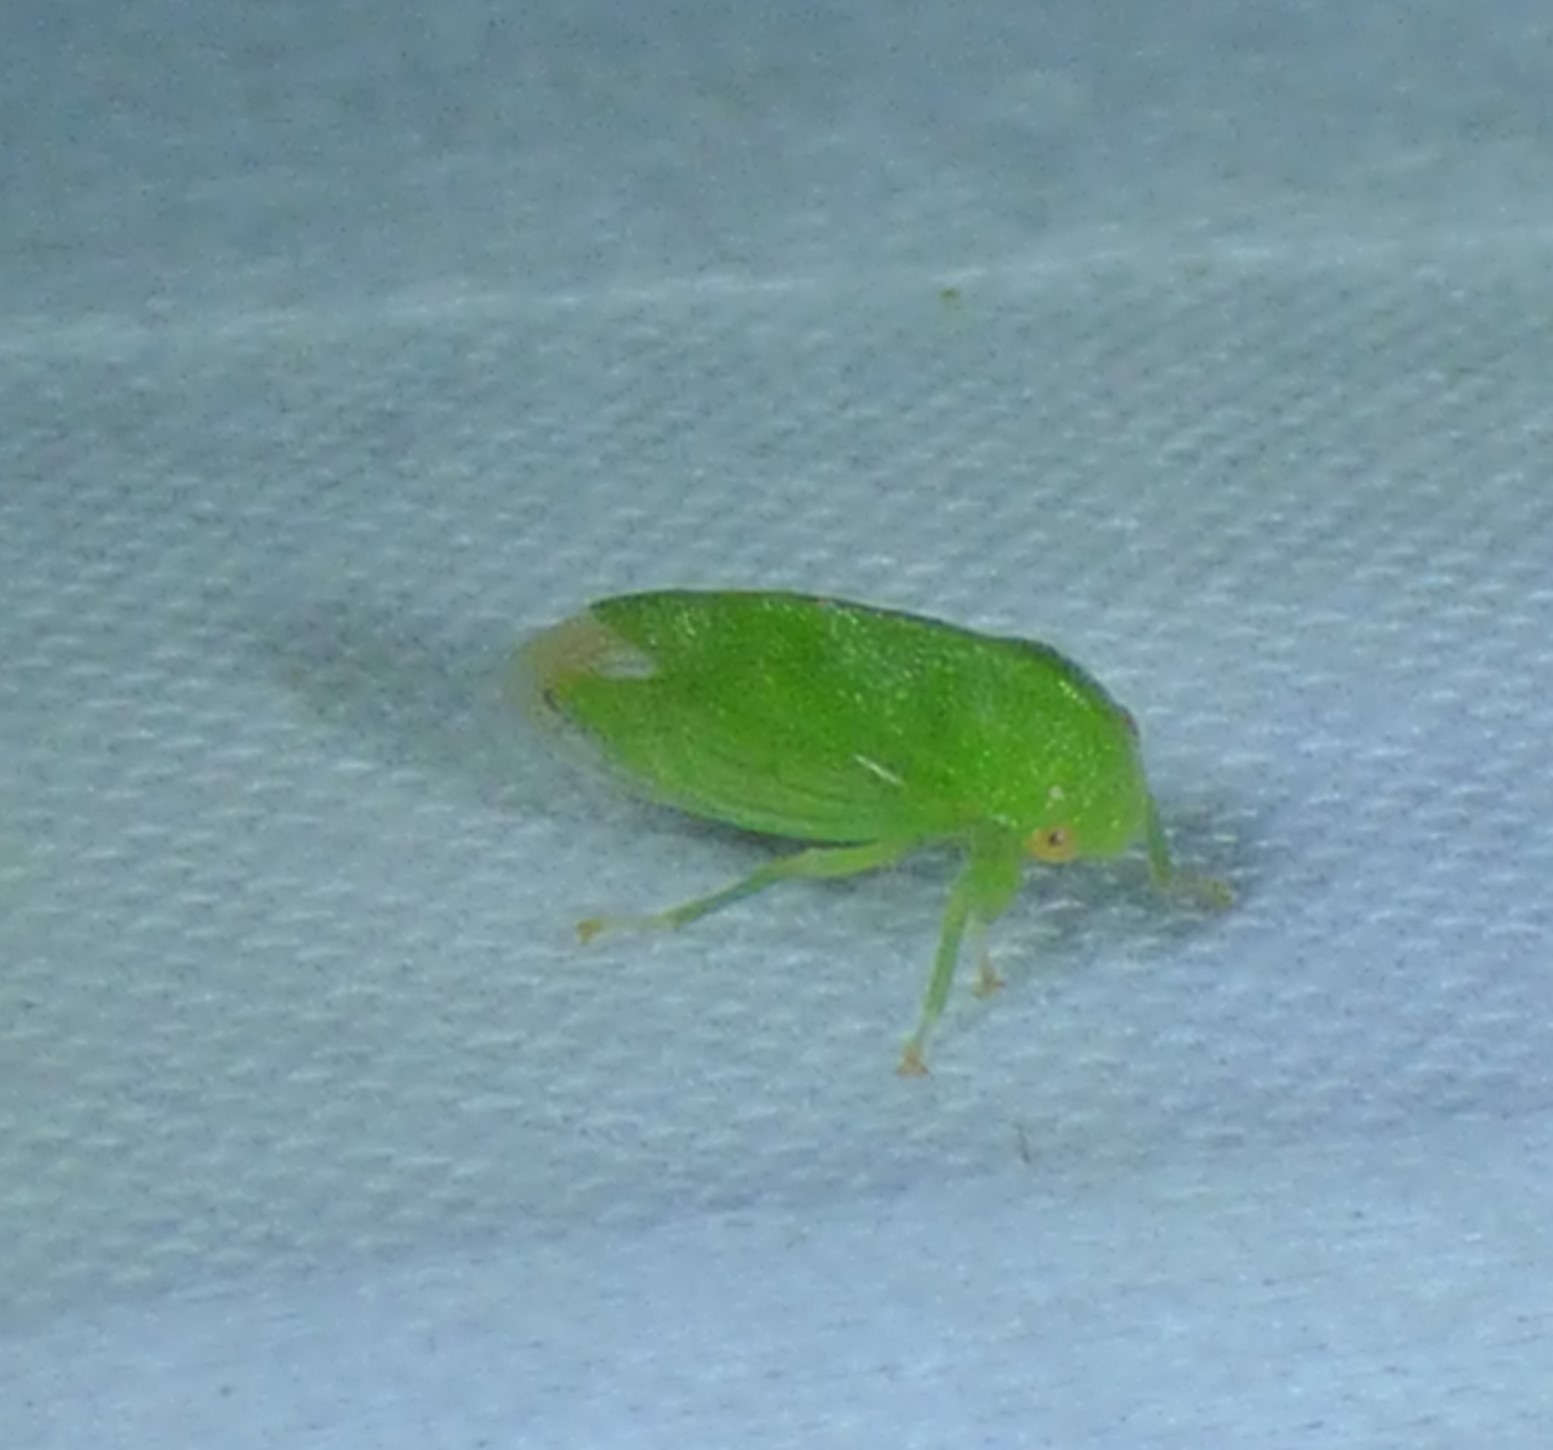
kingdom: Animalia
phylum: Arthropoda
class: Insecta
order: Hemiptera
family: Membracidae
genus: Atymna
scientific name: Atymna querci
